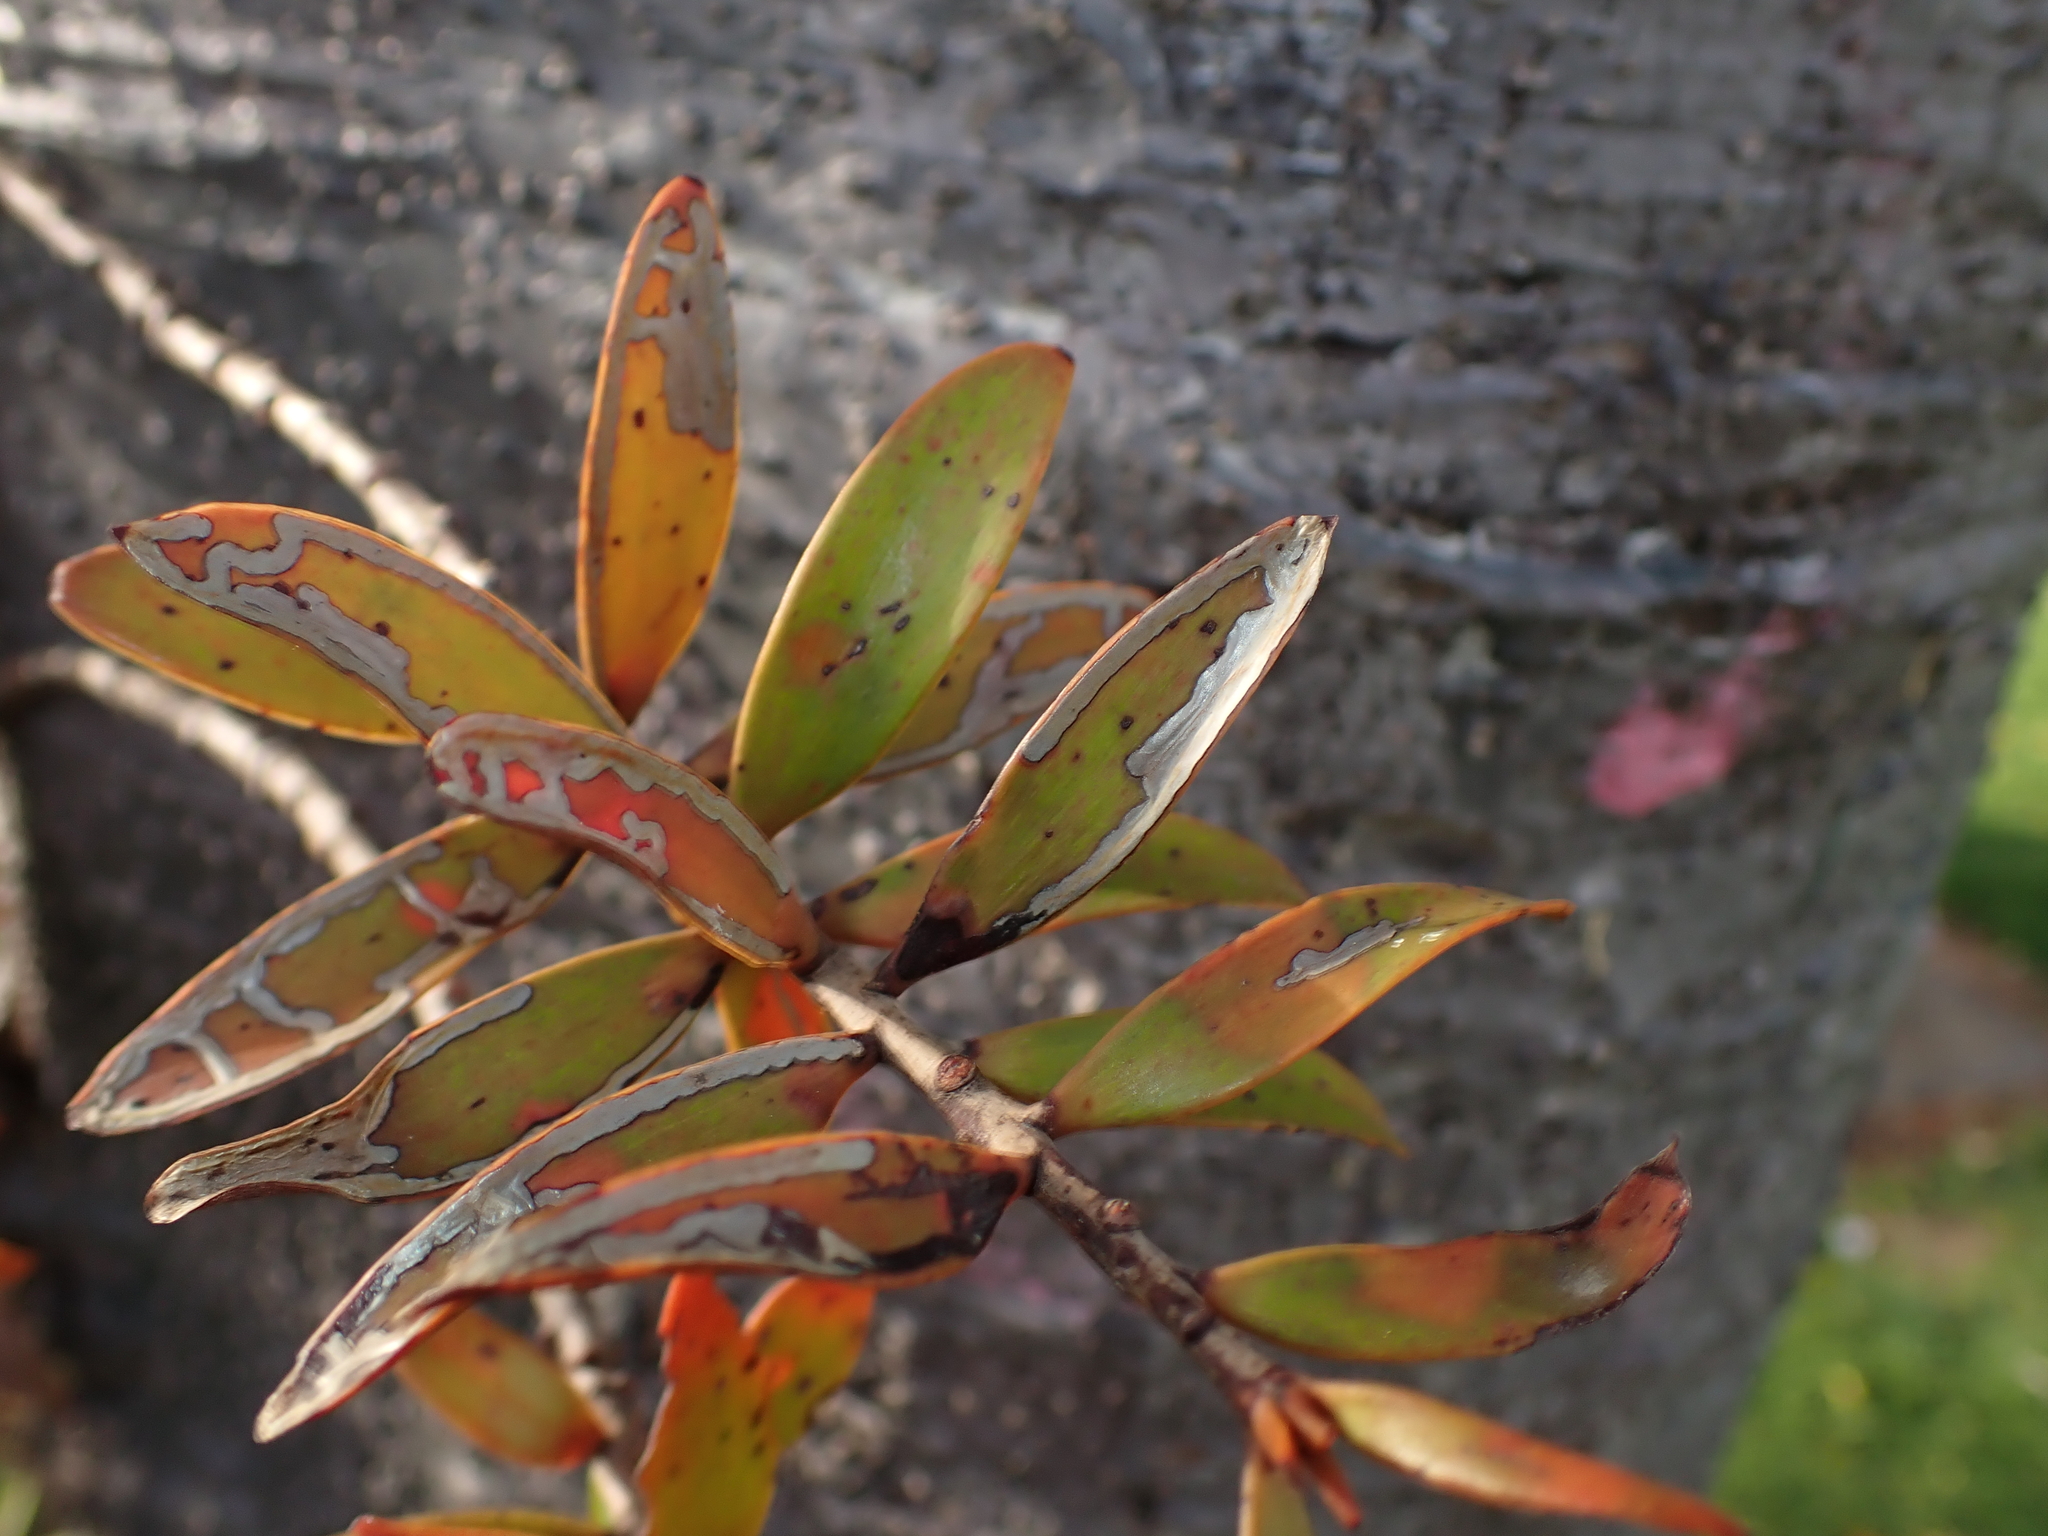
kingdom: Animalia
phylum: Arthropoda
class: Insecta
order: Lepidoptera
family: Gracillariidae
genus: Acrocercops
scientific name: Acrocercops leucotoma
